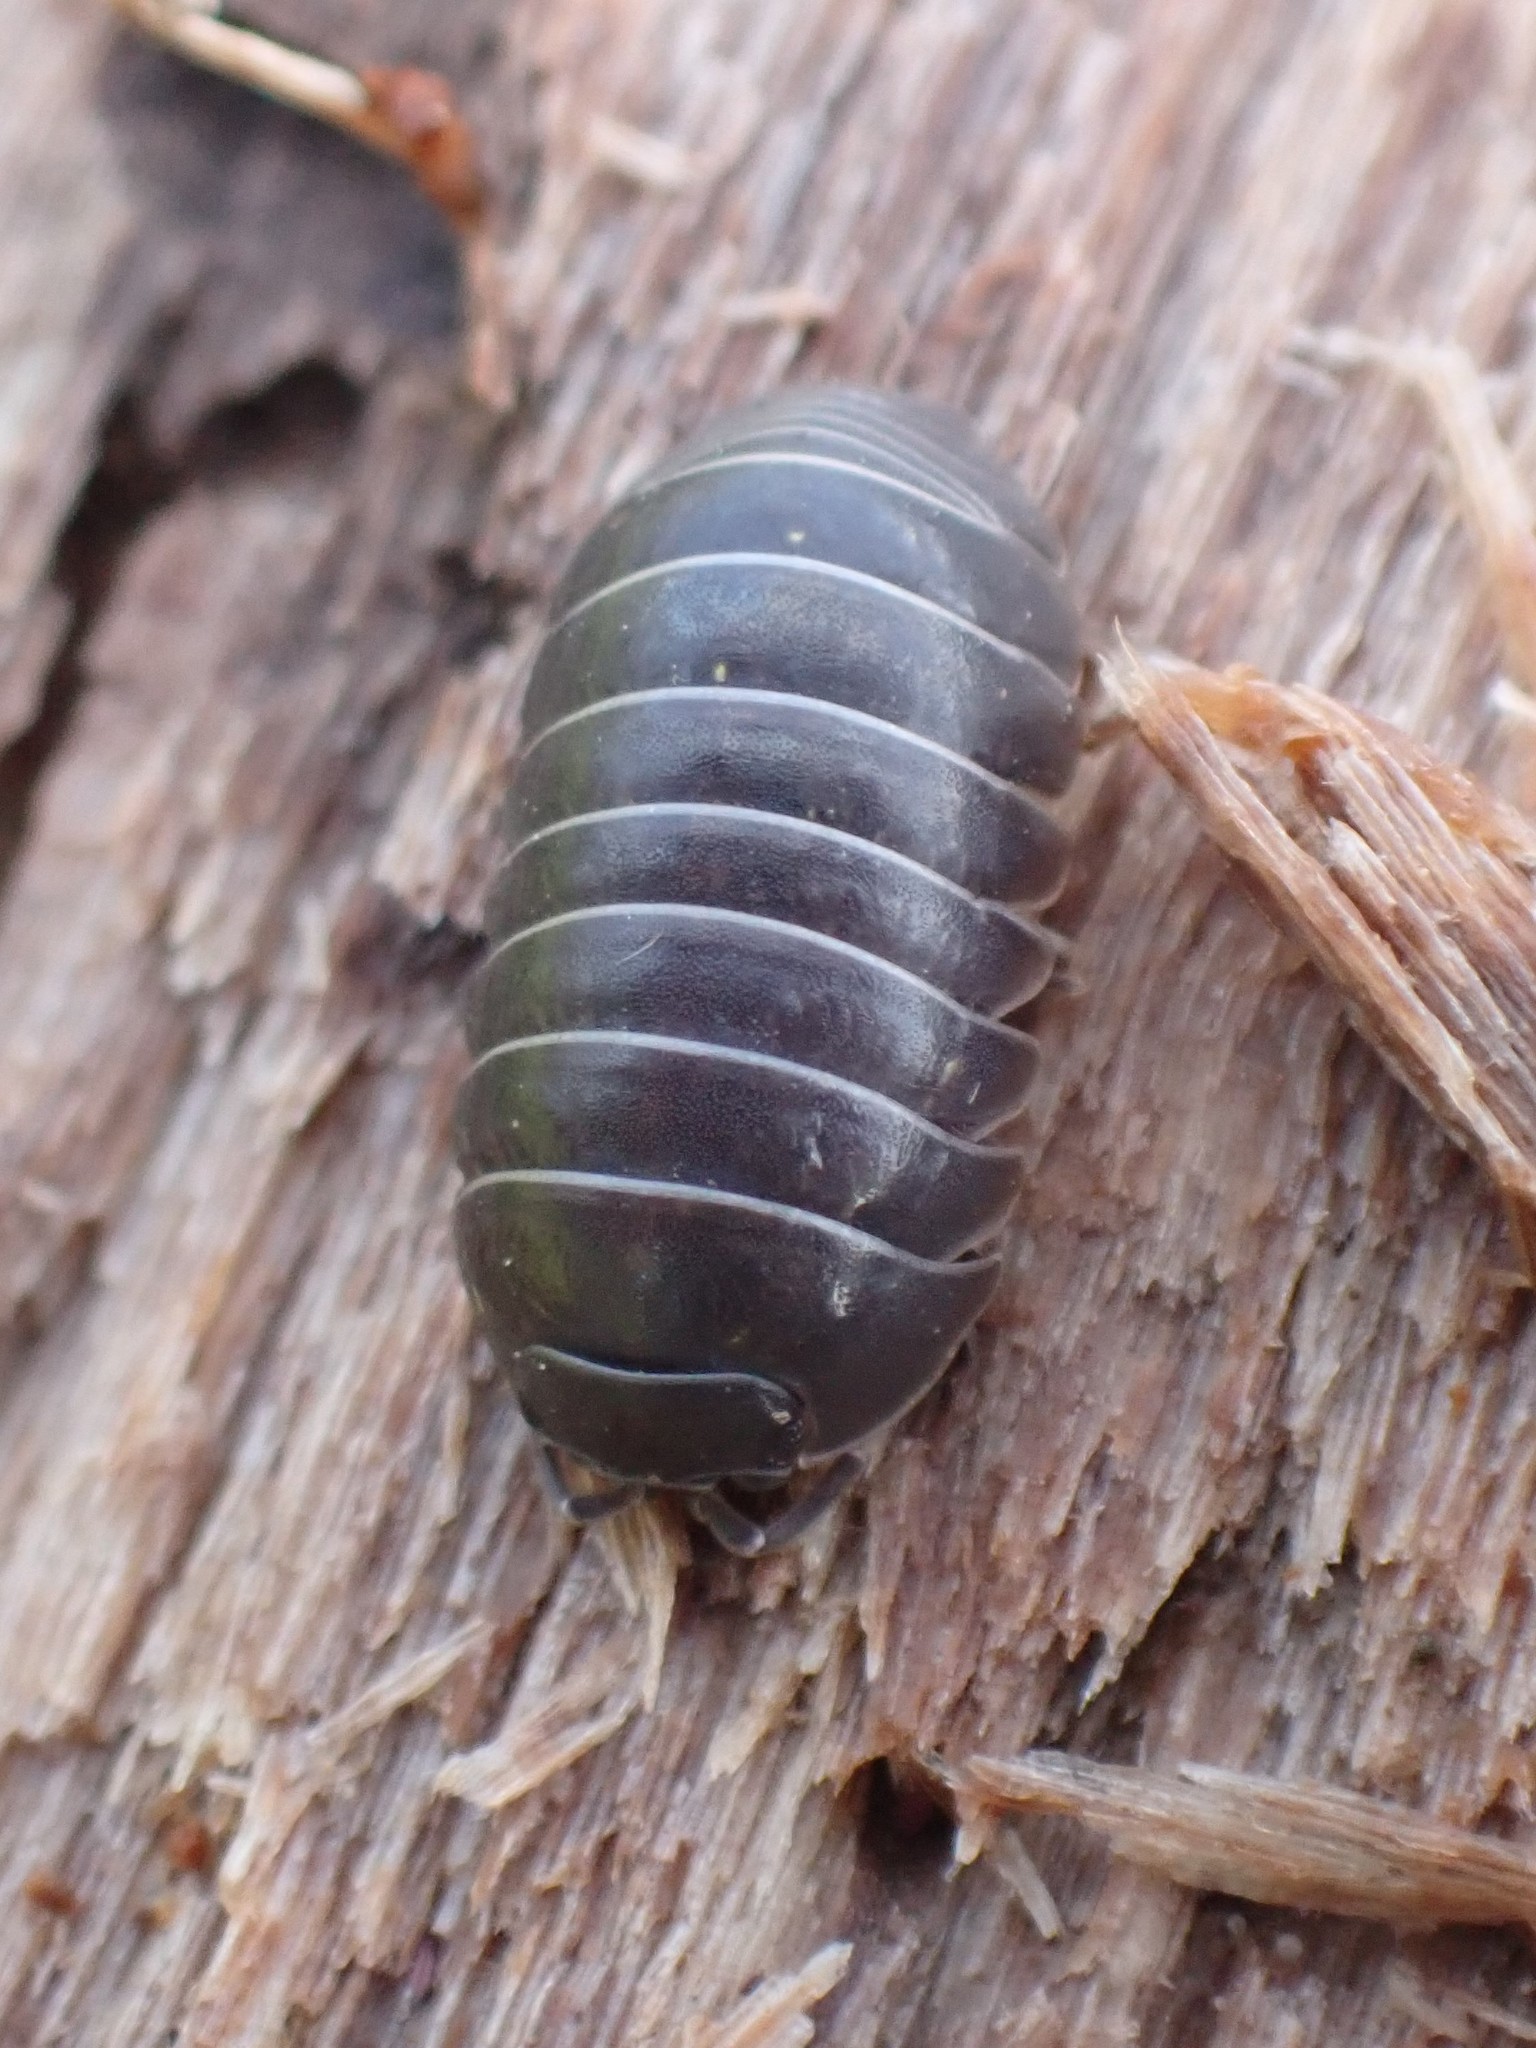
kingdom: Animalia
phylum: Arthropoda
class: Malacostraca
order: Isopoda
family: Armadillidiidae
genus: Armadillidium
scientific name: Armadillidium vulgare
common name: Common pill woodlouse
